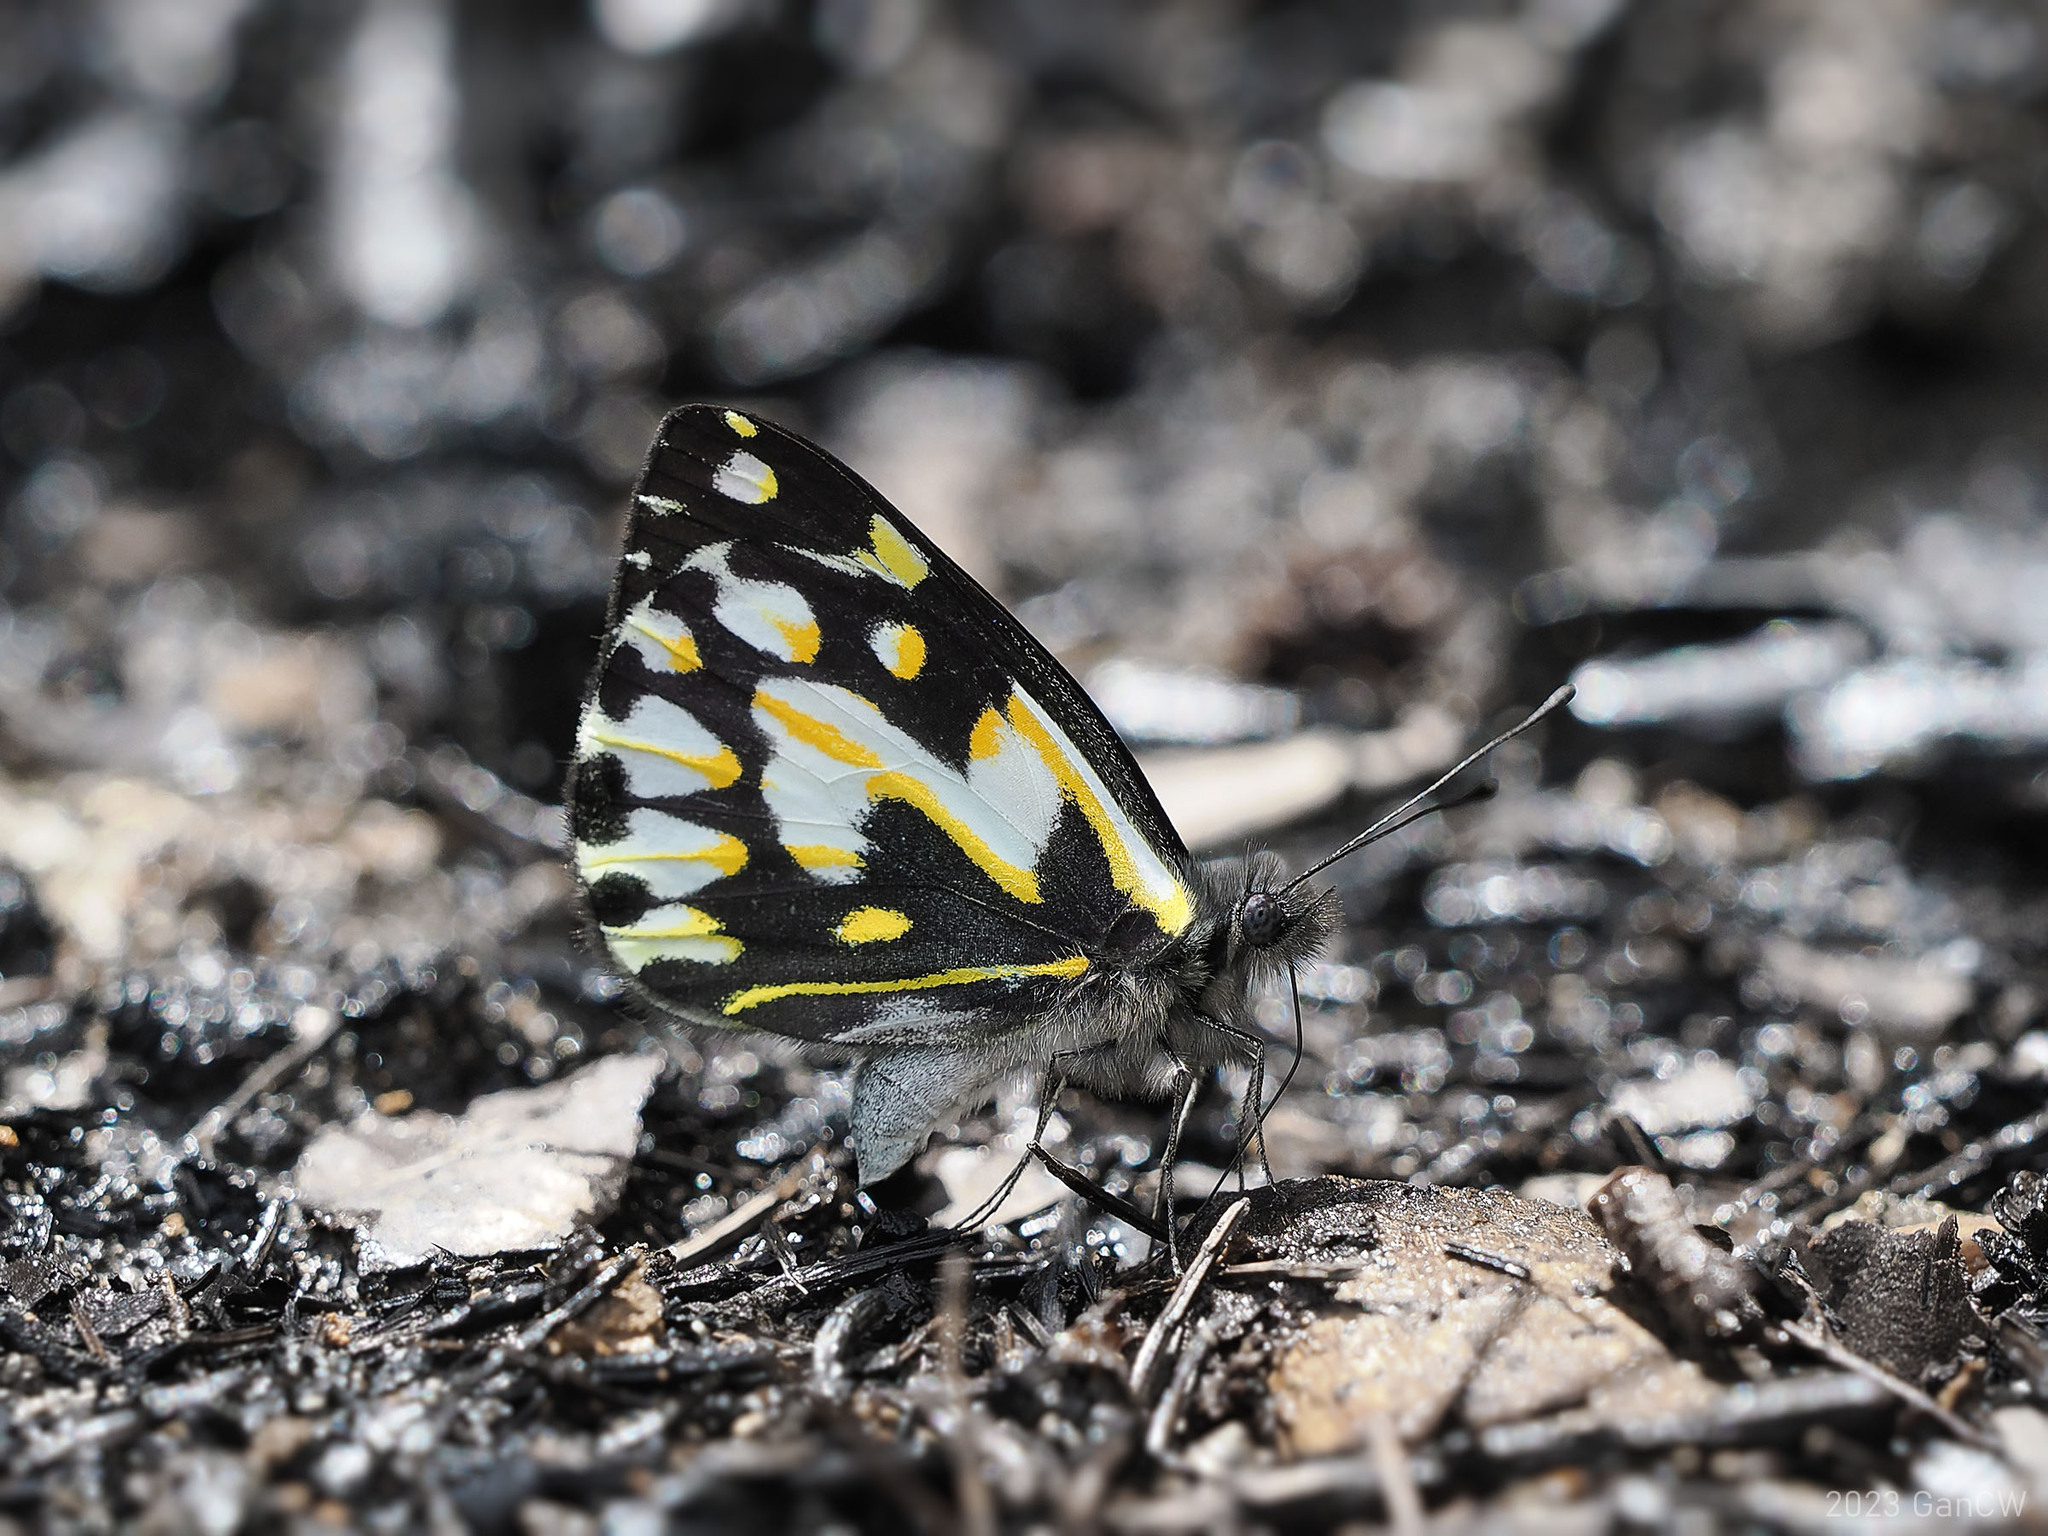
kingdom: Animalia
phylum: Arthropoda
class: Insecta
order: Lepidoptera
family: Pieridae
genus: Delias
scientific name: Delias catisa
